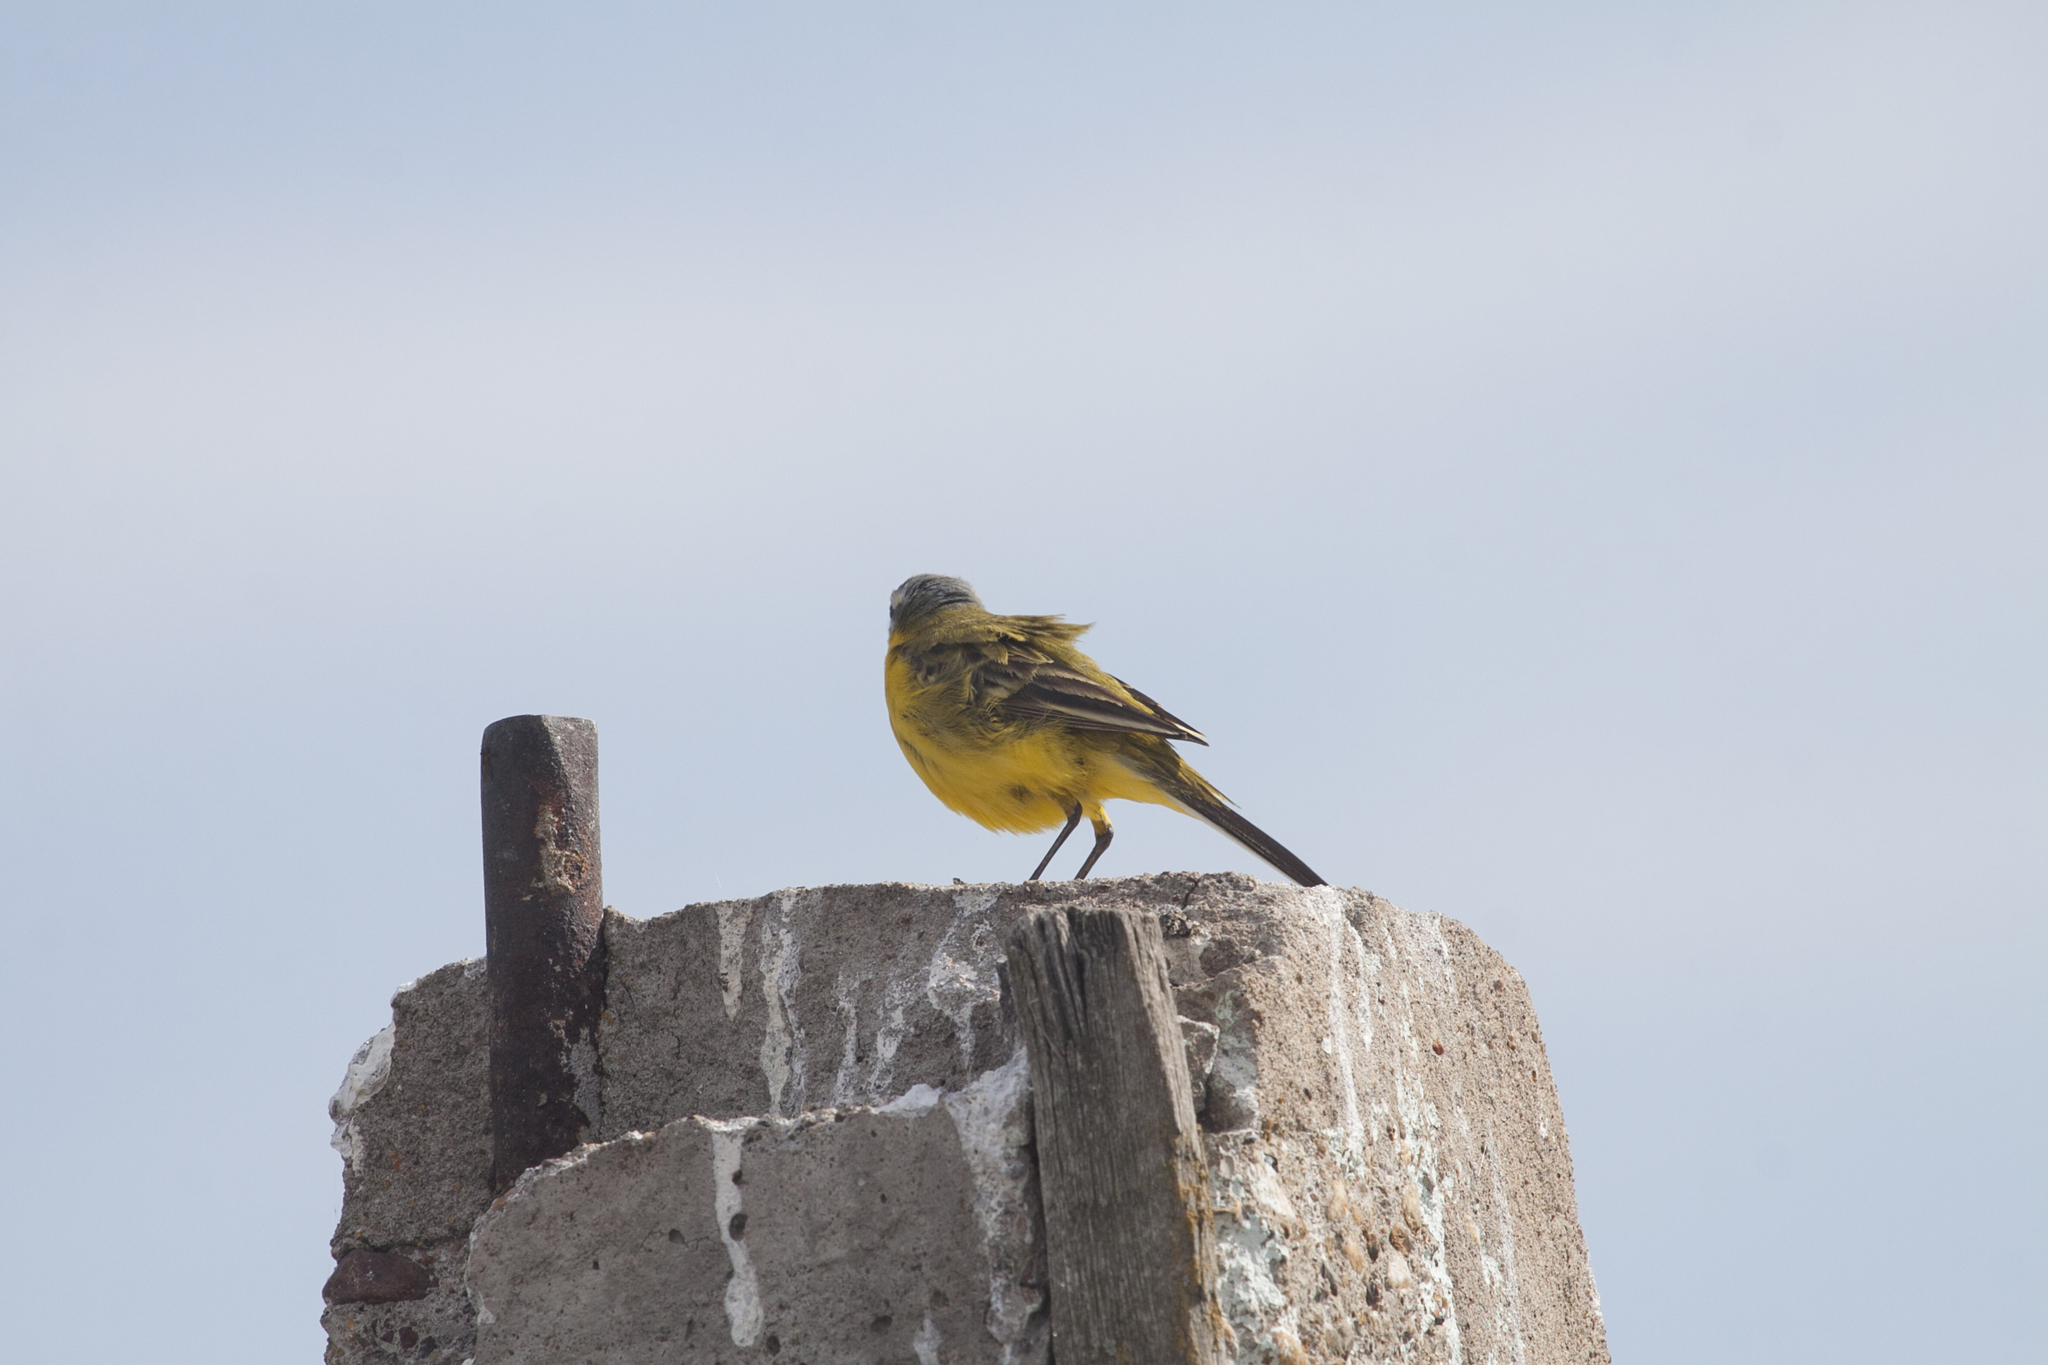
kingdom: Animalia
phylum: Chordata
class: Aves
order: Passeriformes
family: Motacillidae
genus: Motacilla
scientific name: Motacilla flava
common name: Western yellow wagtail
